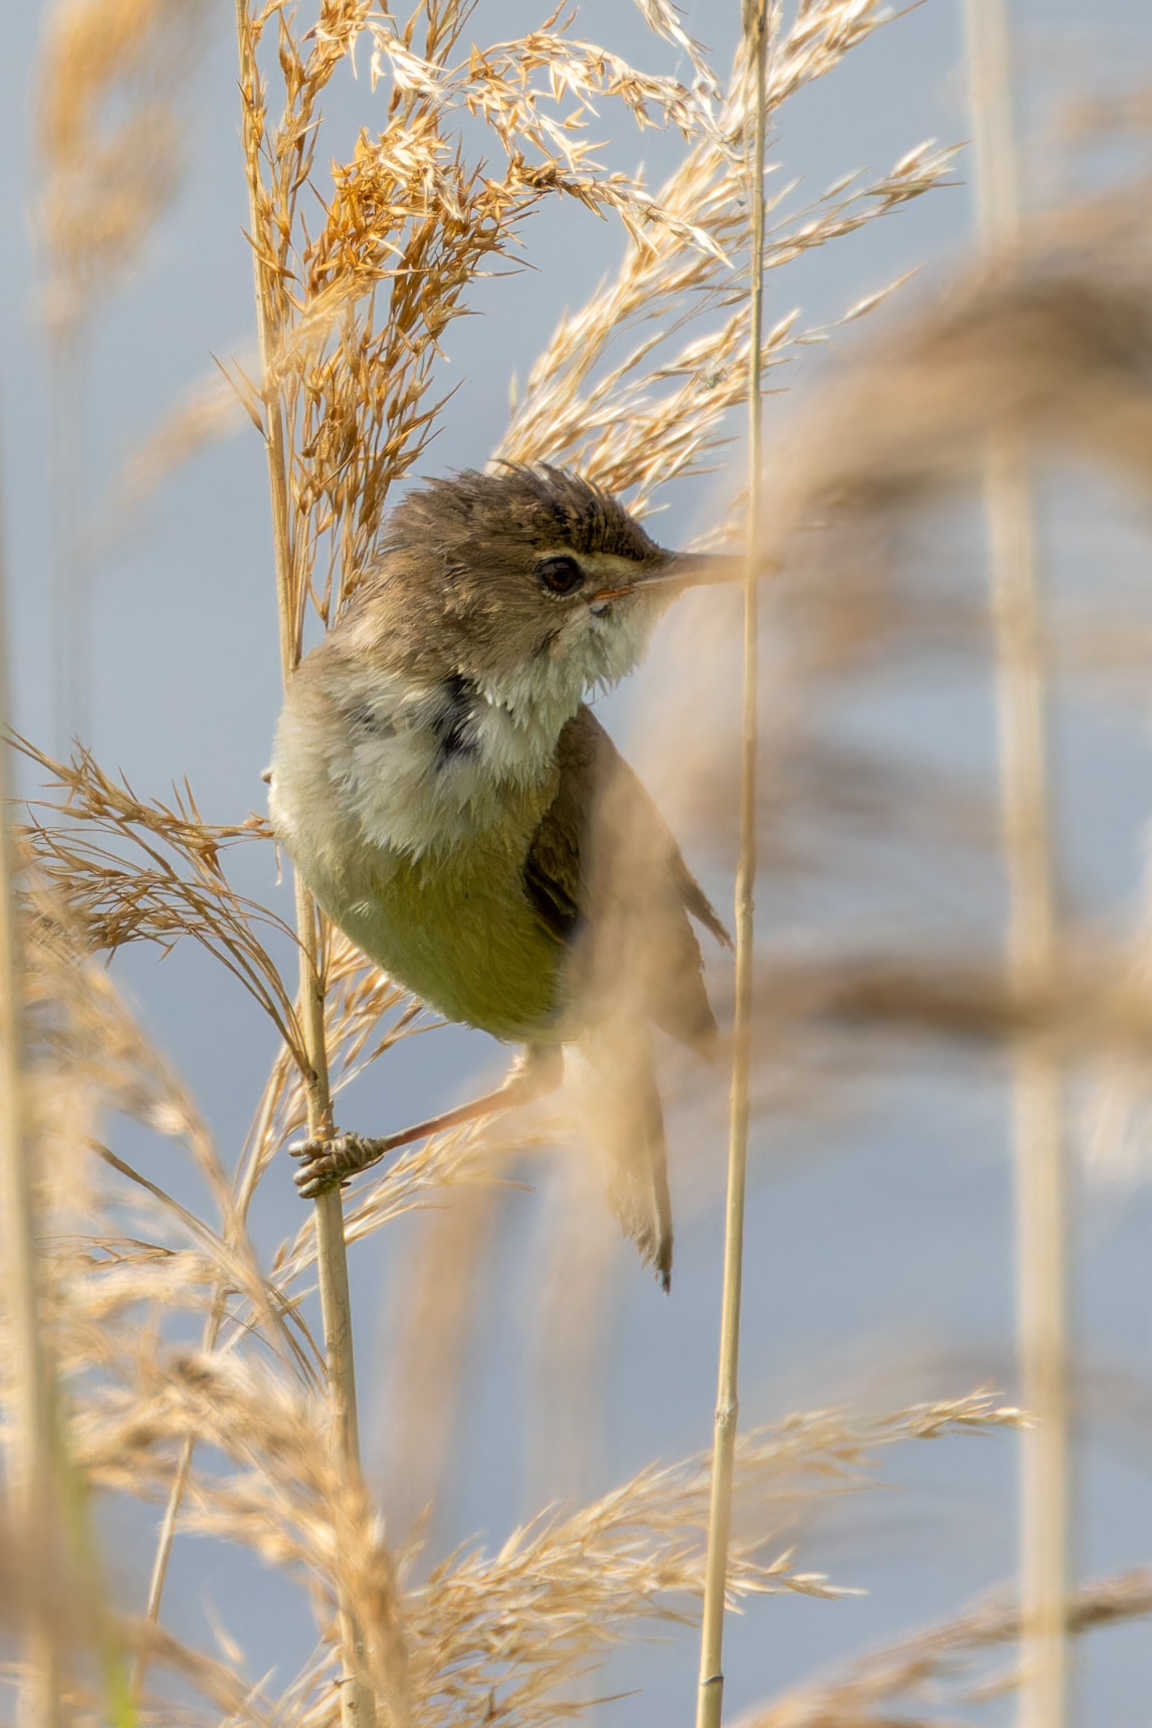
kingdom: Animalia
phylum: Chordata
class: Aves
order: Passeriformes
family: Acrocephalidae
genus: Acrocephalus
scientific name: Acrocephalus scirpaceus
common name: Eurasian reed warbler
